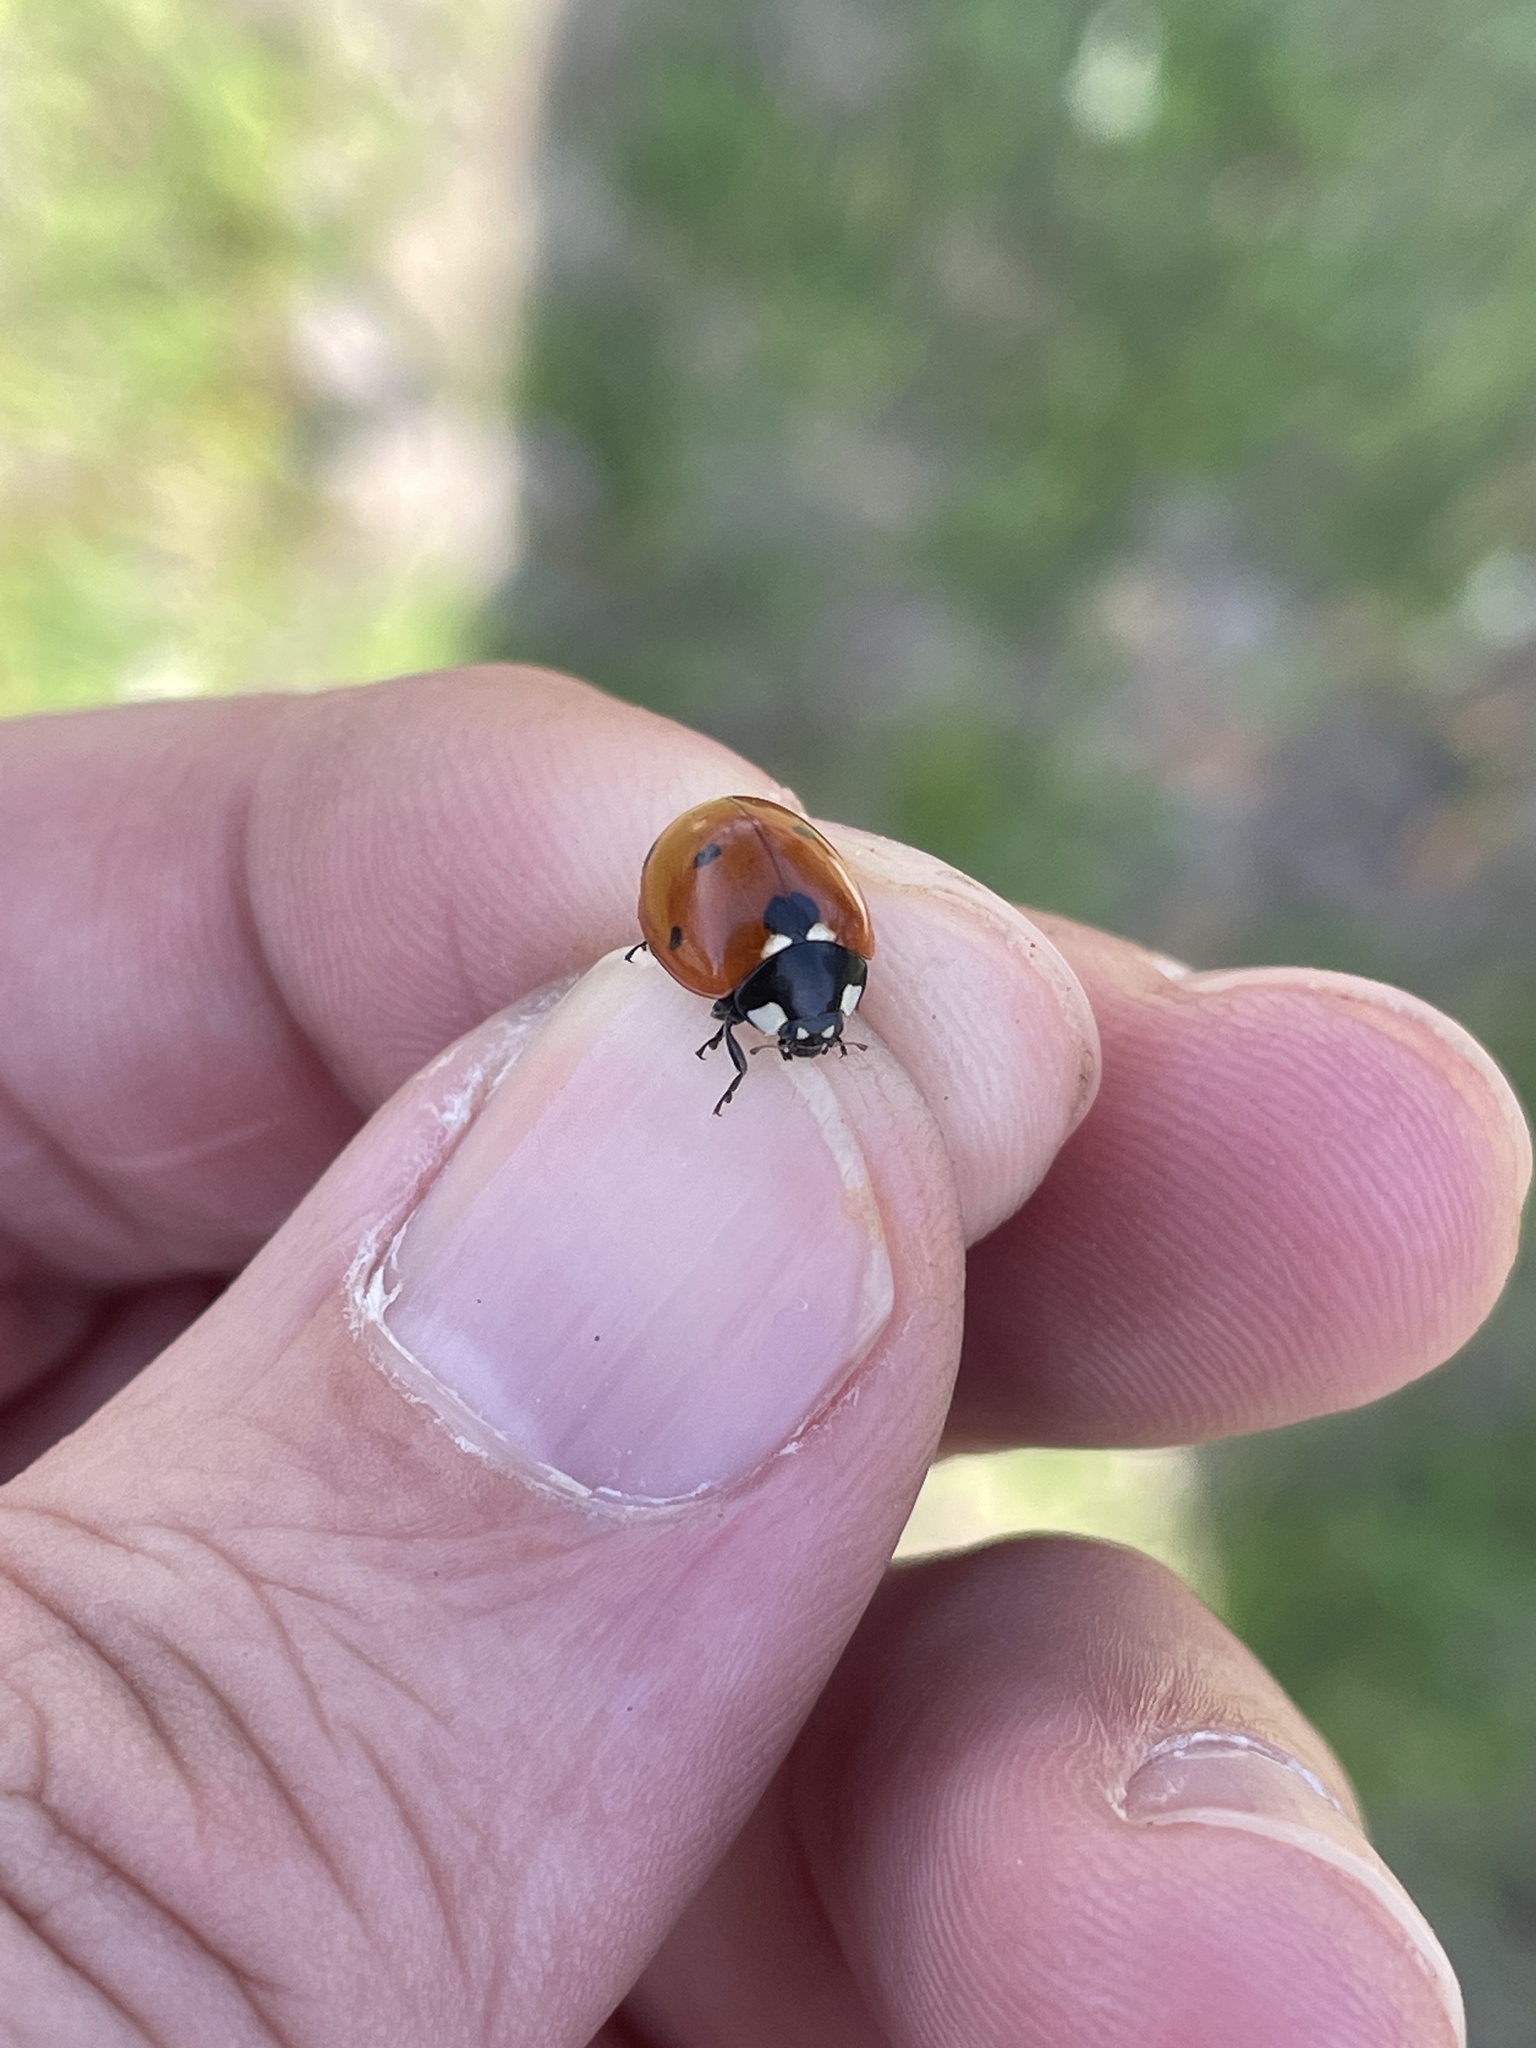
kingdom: Animalia
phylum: Arthropoda
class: Insecta
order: Coleoptera
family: Coccinellidae
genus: Coccinella
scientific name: Coccinella septempunctata
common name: Sevenspotted lady beetle
